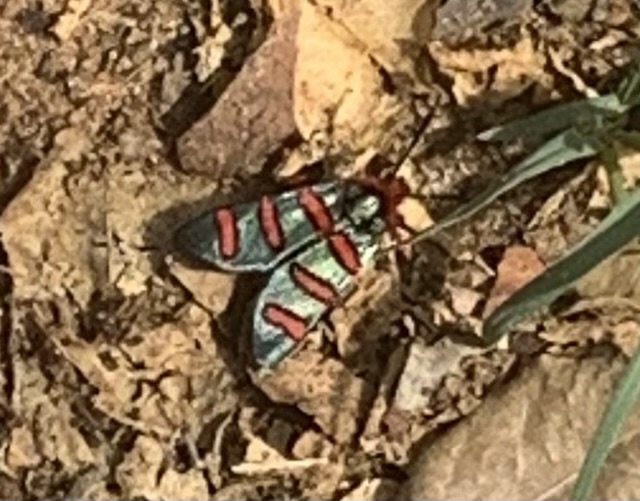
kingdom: Animalia
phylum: Arthropoda
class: Insecta
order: Lepidoptera
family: Thyrididae
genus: Arniocera
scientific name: Arniocera erythropyga
